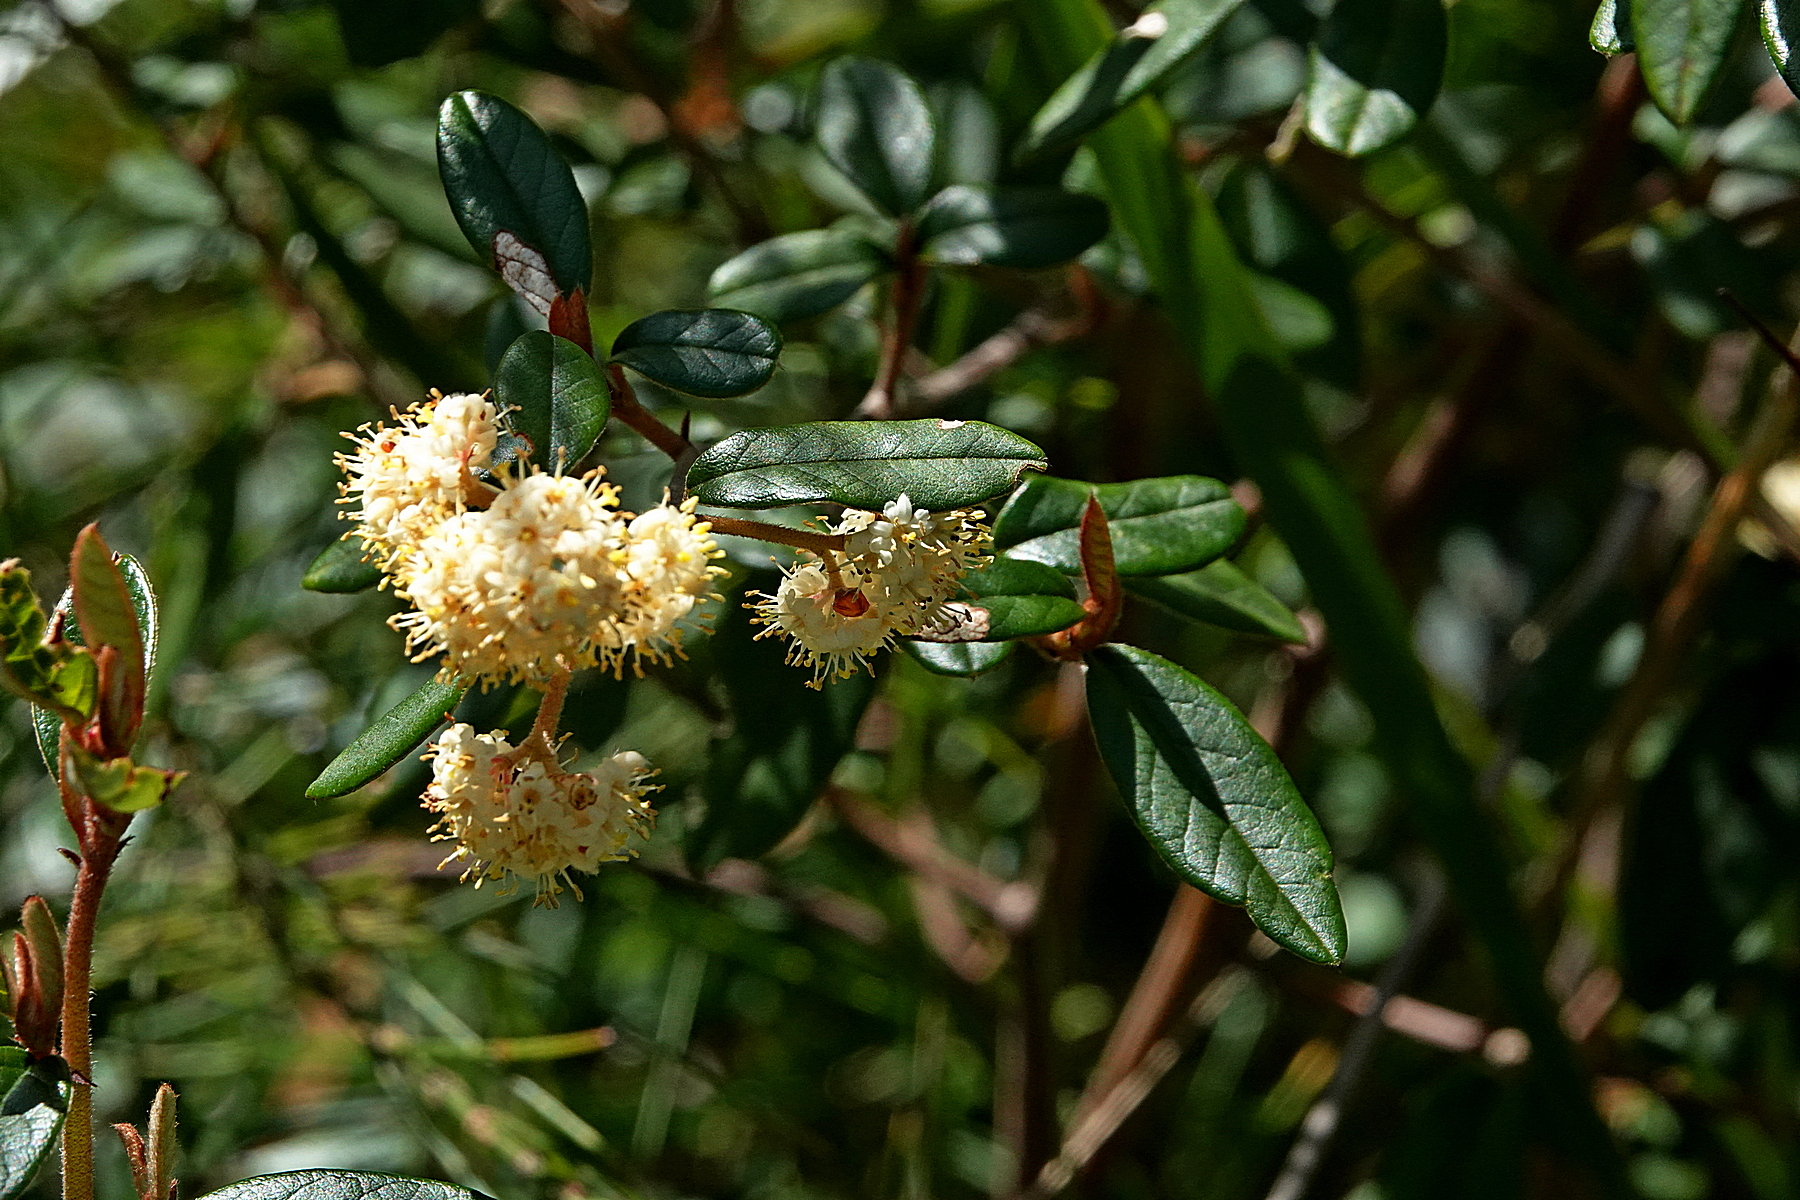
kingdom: Plantae
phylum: Tracheophyta
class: Magnoliopsida
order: Rosales
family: Rhamnaceae
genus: Pomaderris
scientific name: Pomaderris andromedifolia
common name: Yellow pomaderris
